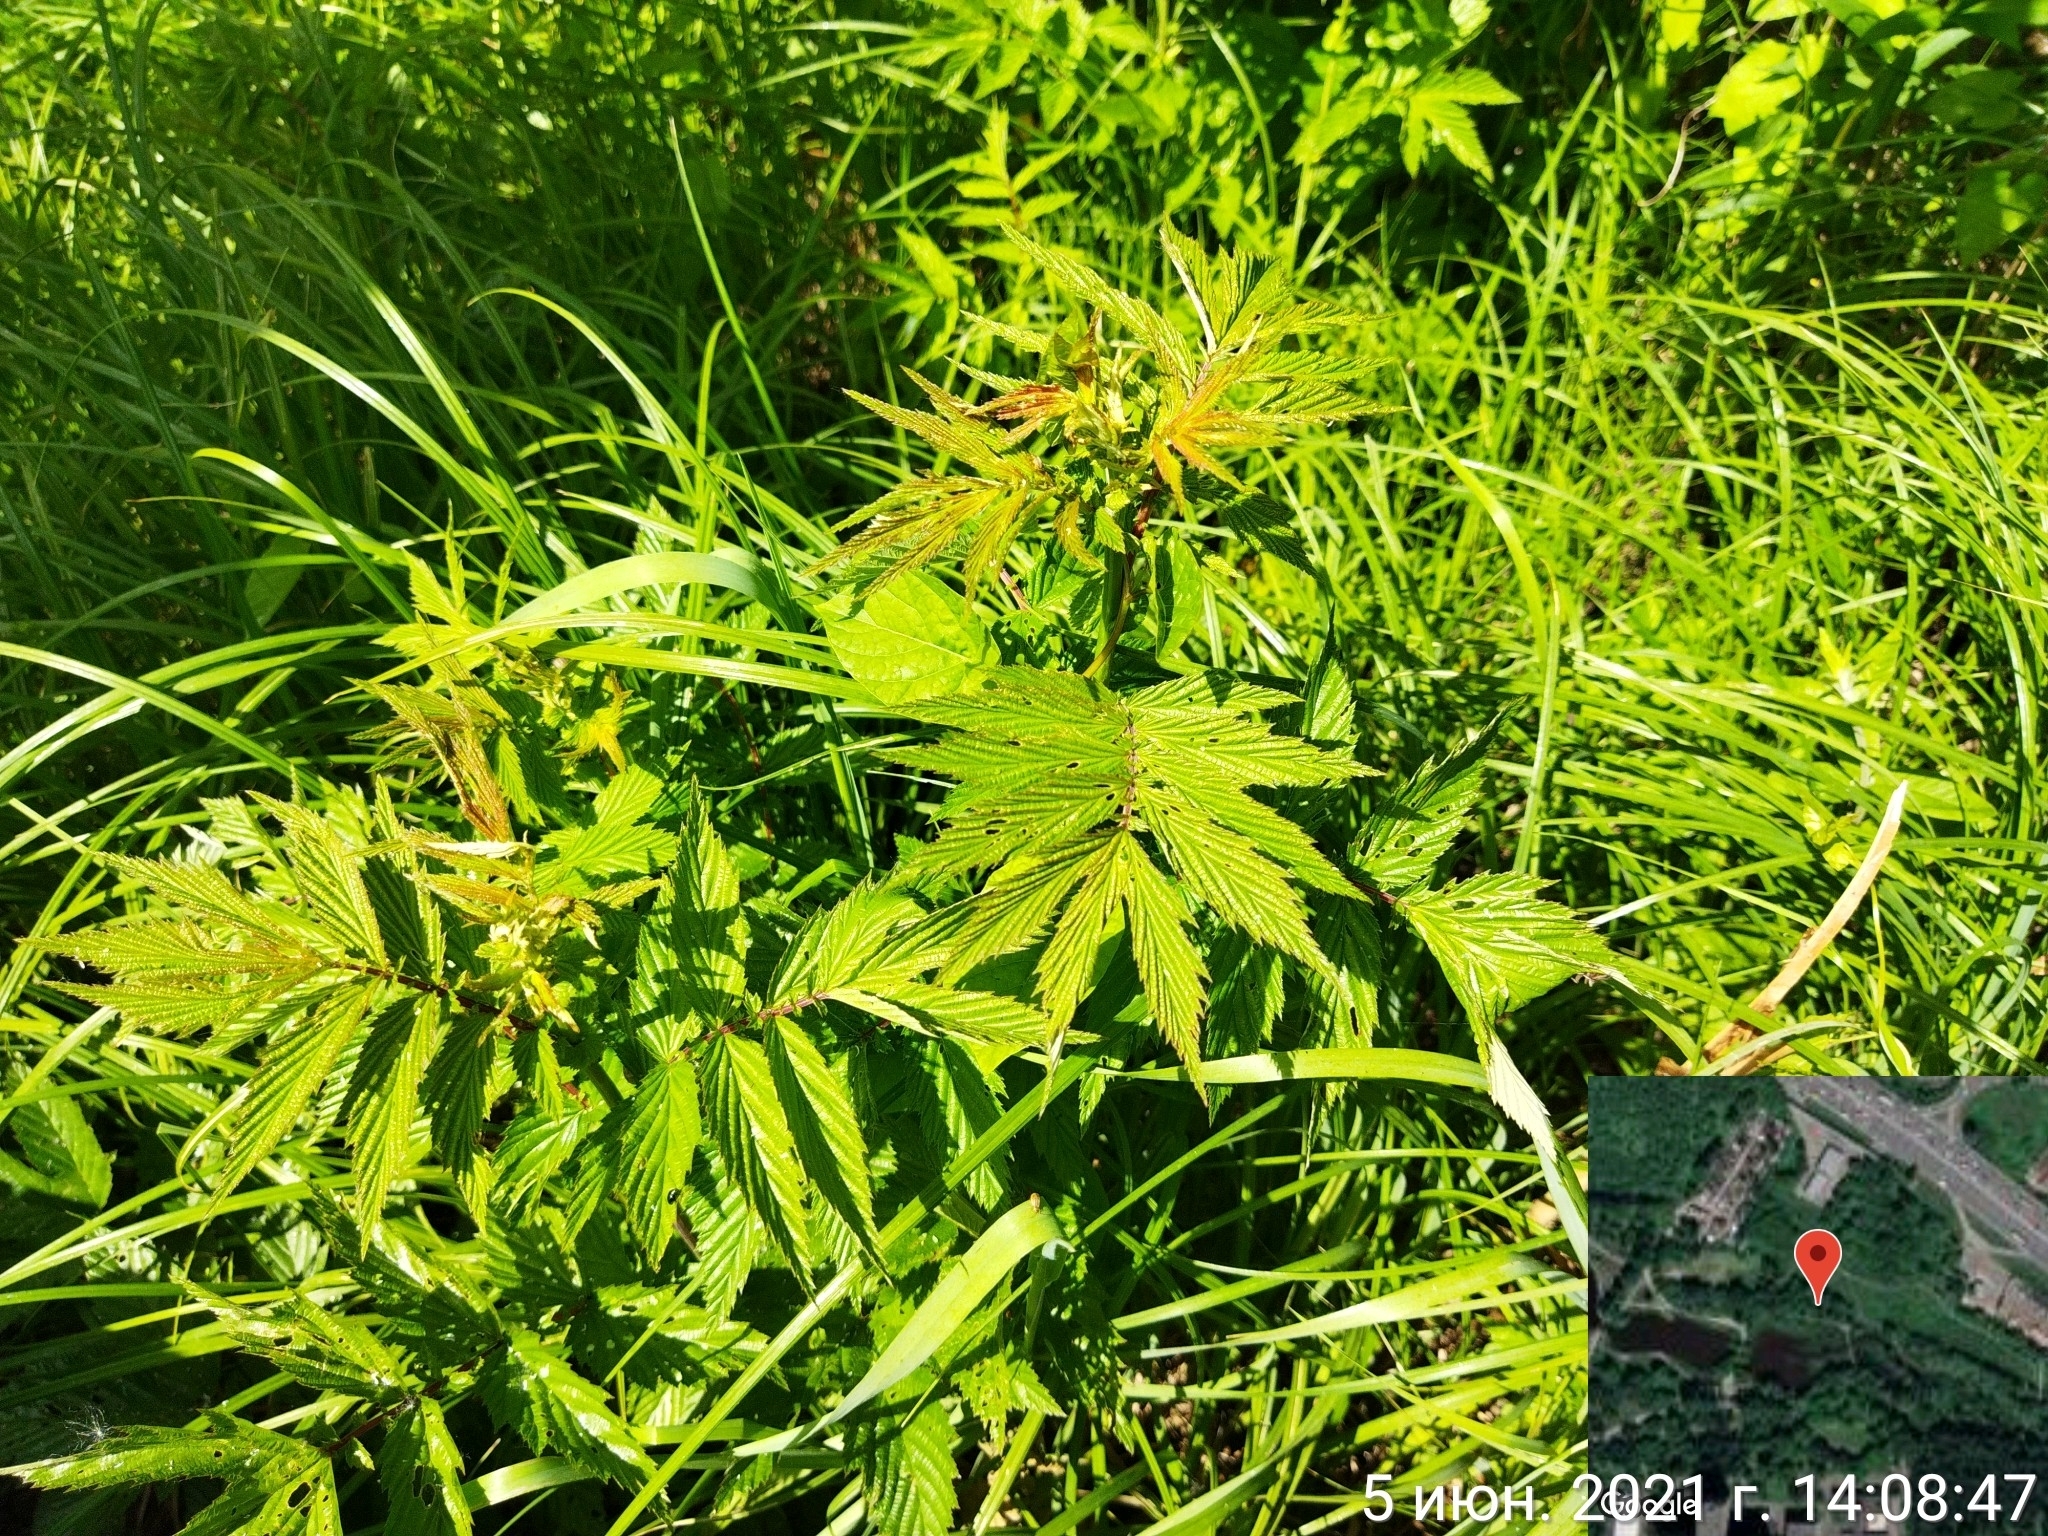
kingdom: Plantae
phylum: Tracheophyta
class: Magnoliopsida
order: Rosales
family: Rosaceae
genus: Filipendula
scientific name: Filipendula ulmaria
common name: Meadowsweet
